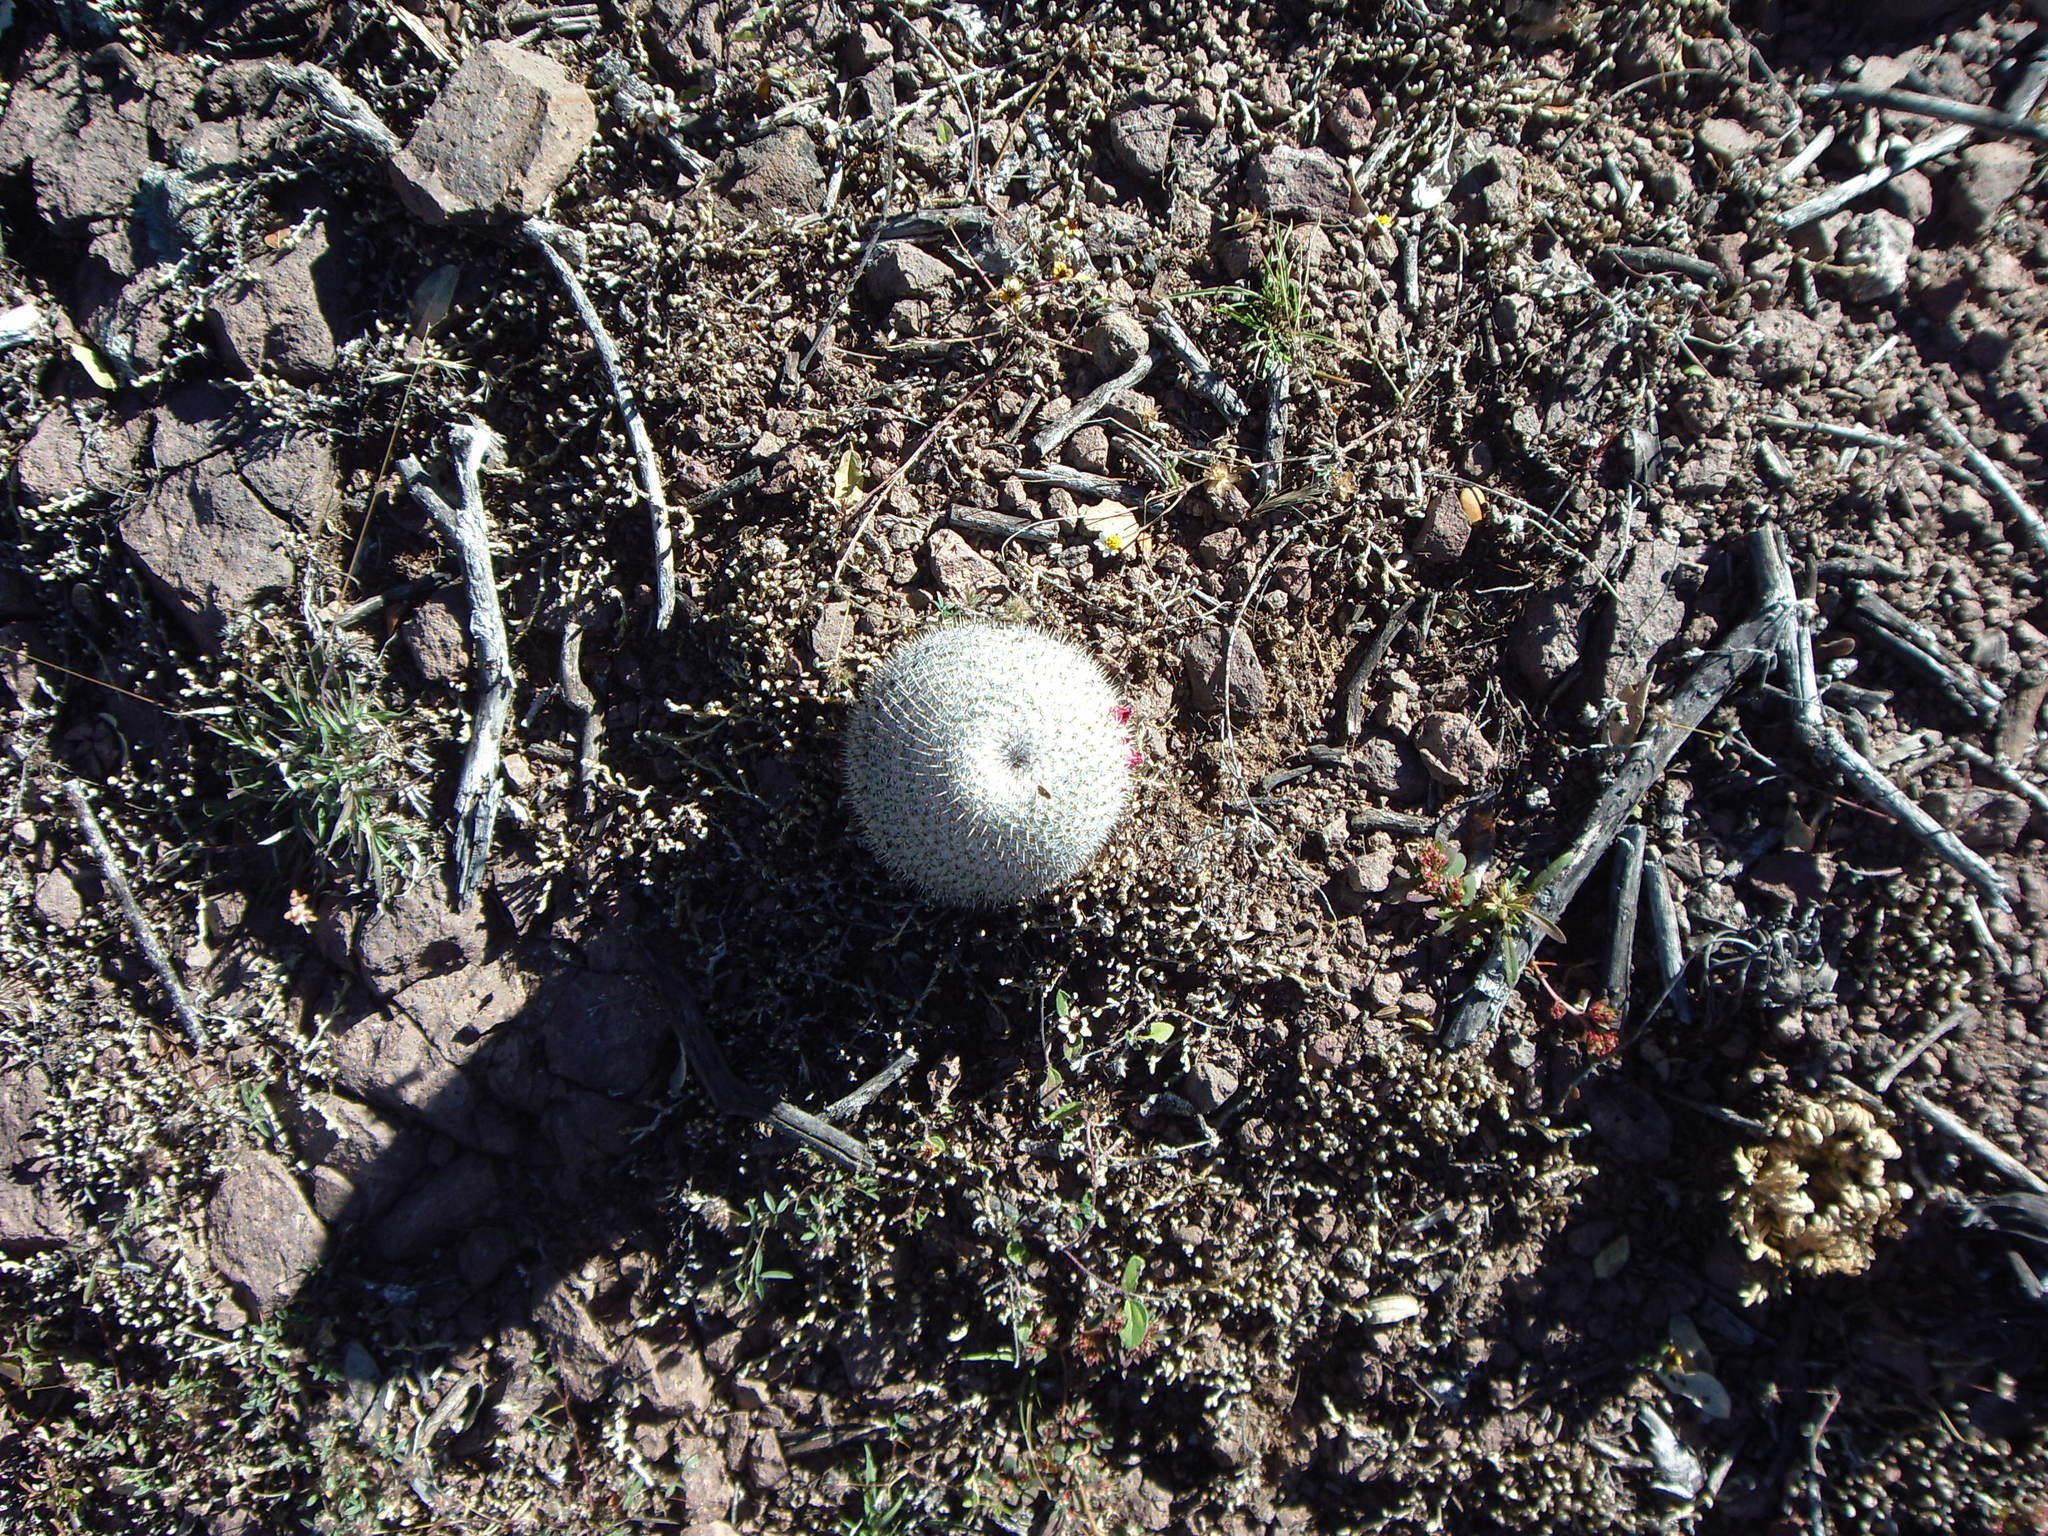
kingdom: Plantae
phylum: Tracheophyta
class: Magnoliopsida
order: Caryophyllales
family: Cactaceae
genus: Mammillaria
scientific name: Mammillaria haageana
